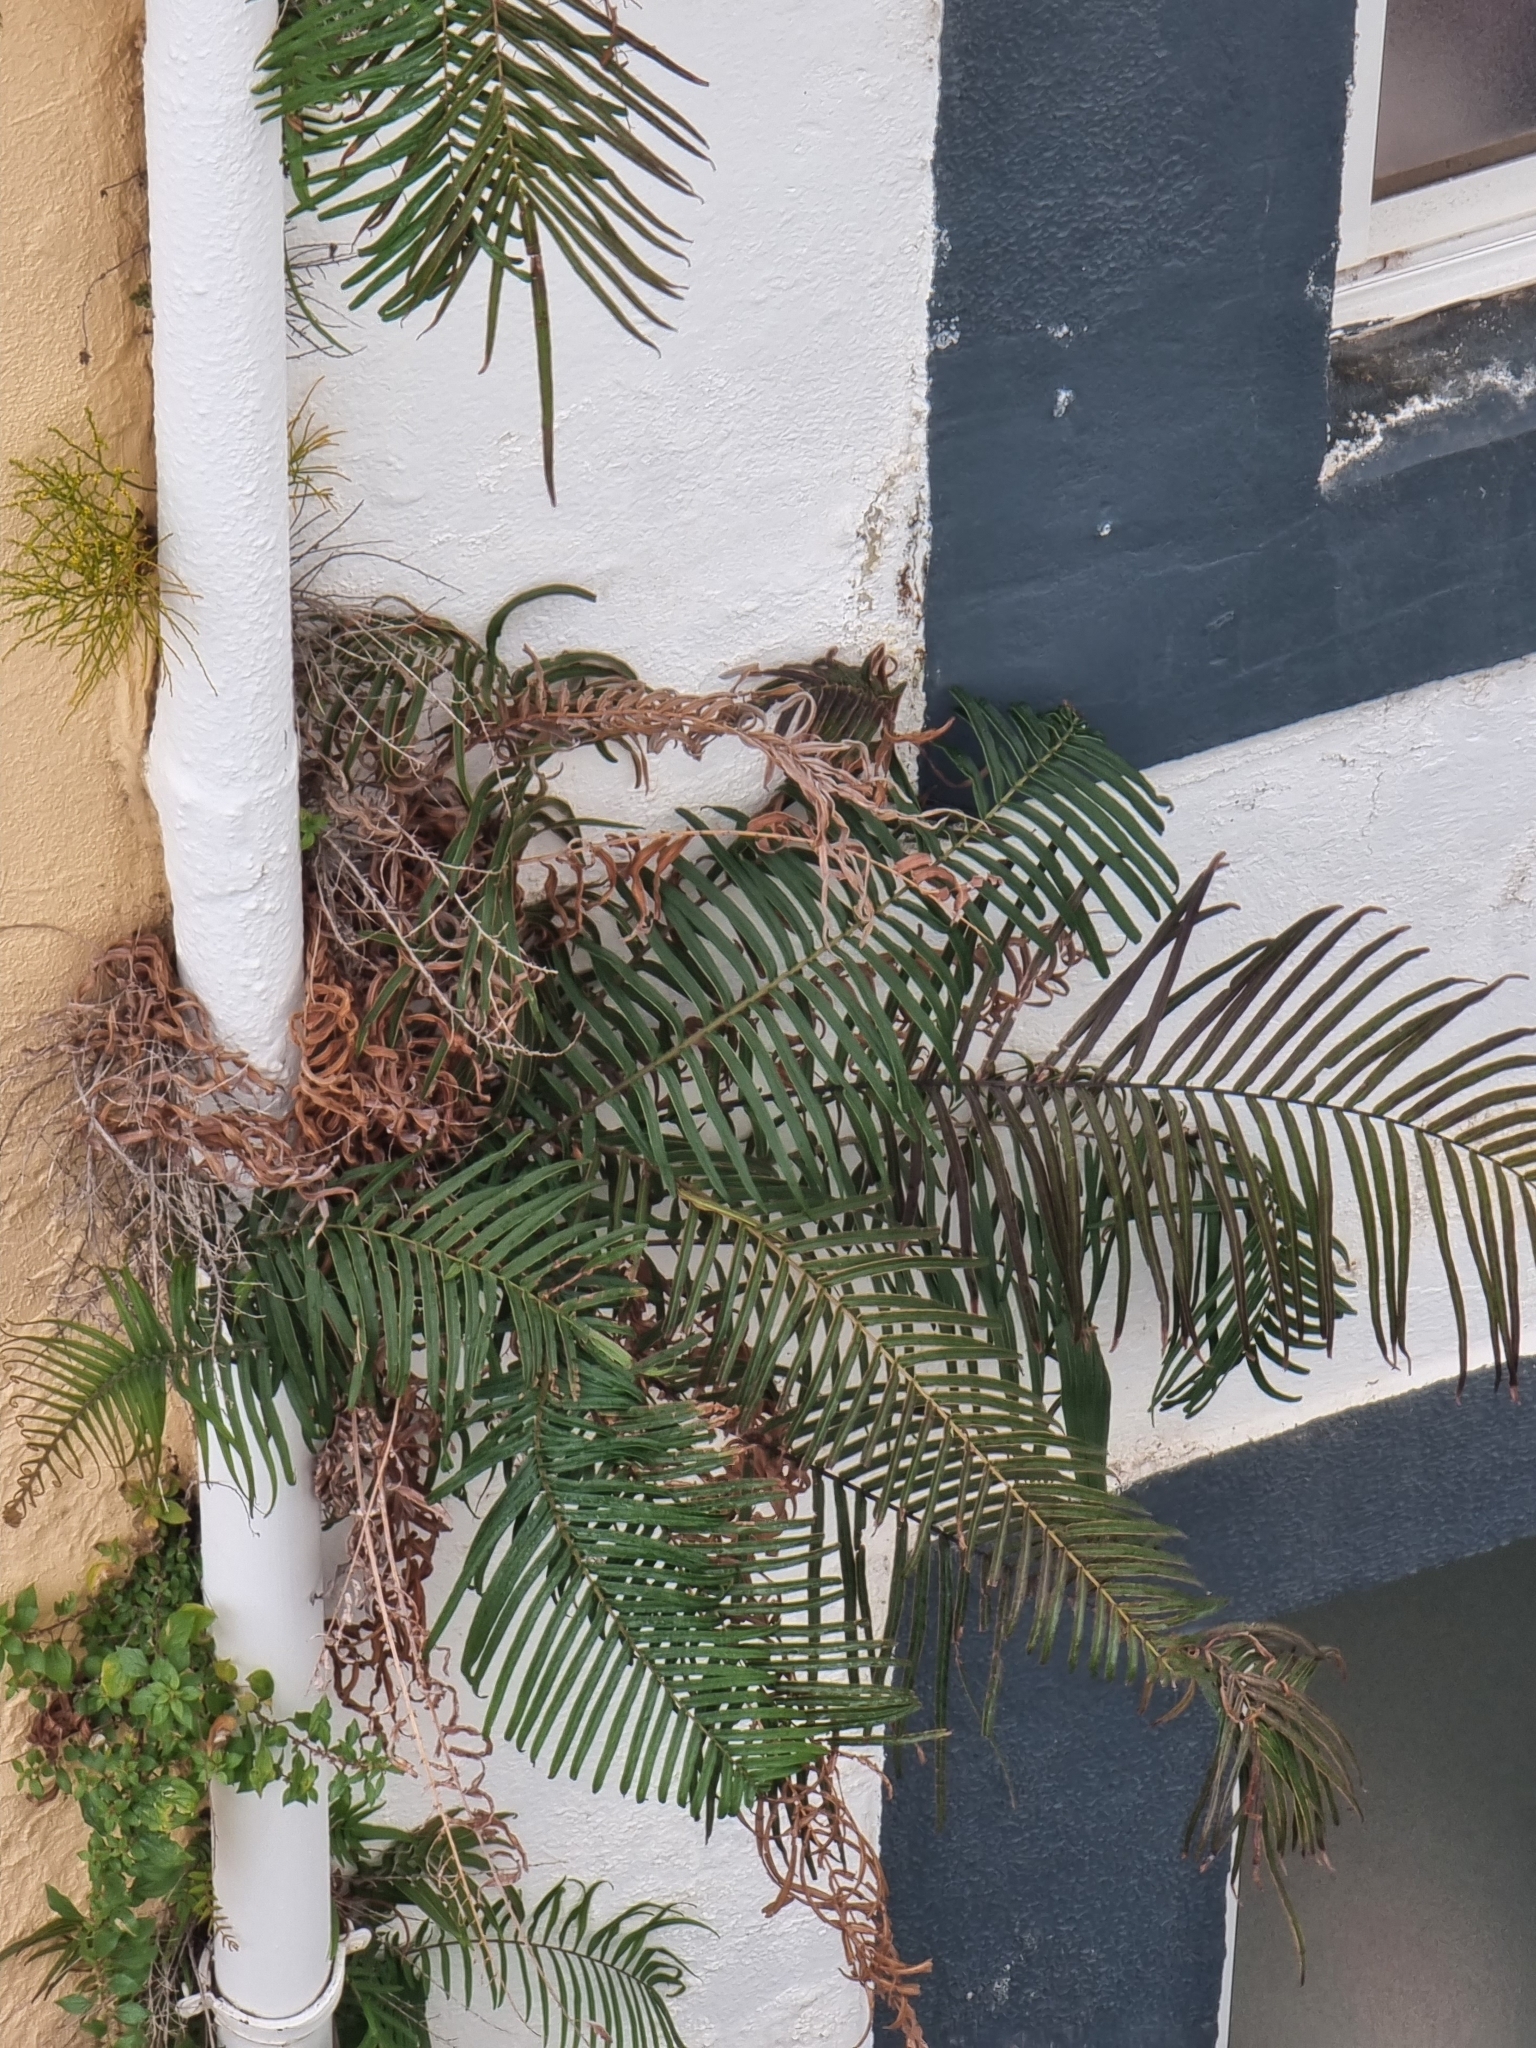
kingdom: Plantae
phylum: Tracheophyta
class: Polypodiopsida
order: Polypodiales
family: Pteridaceae
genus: Pteris
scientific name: Pteris vittata
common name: Ladder brake
